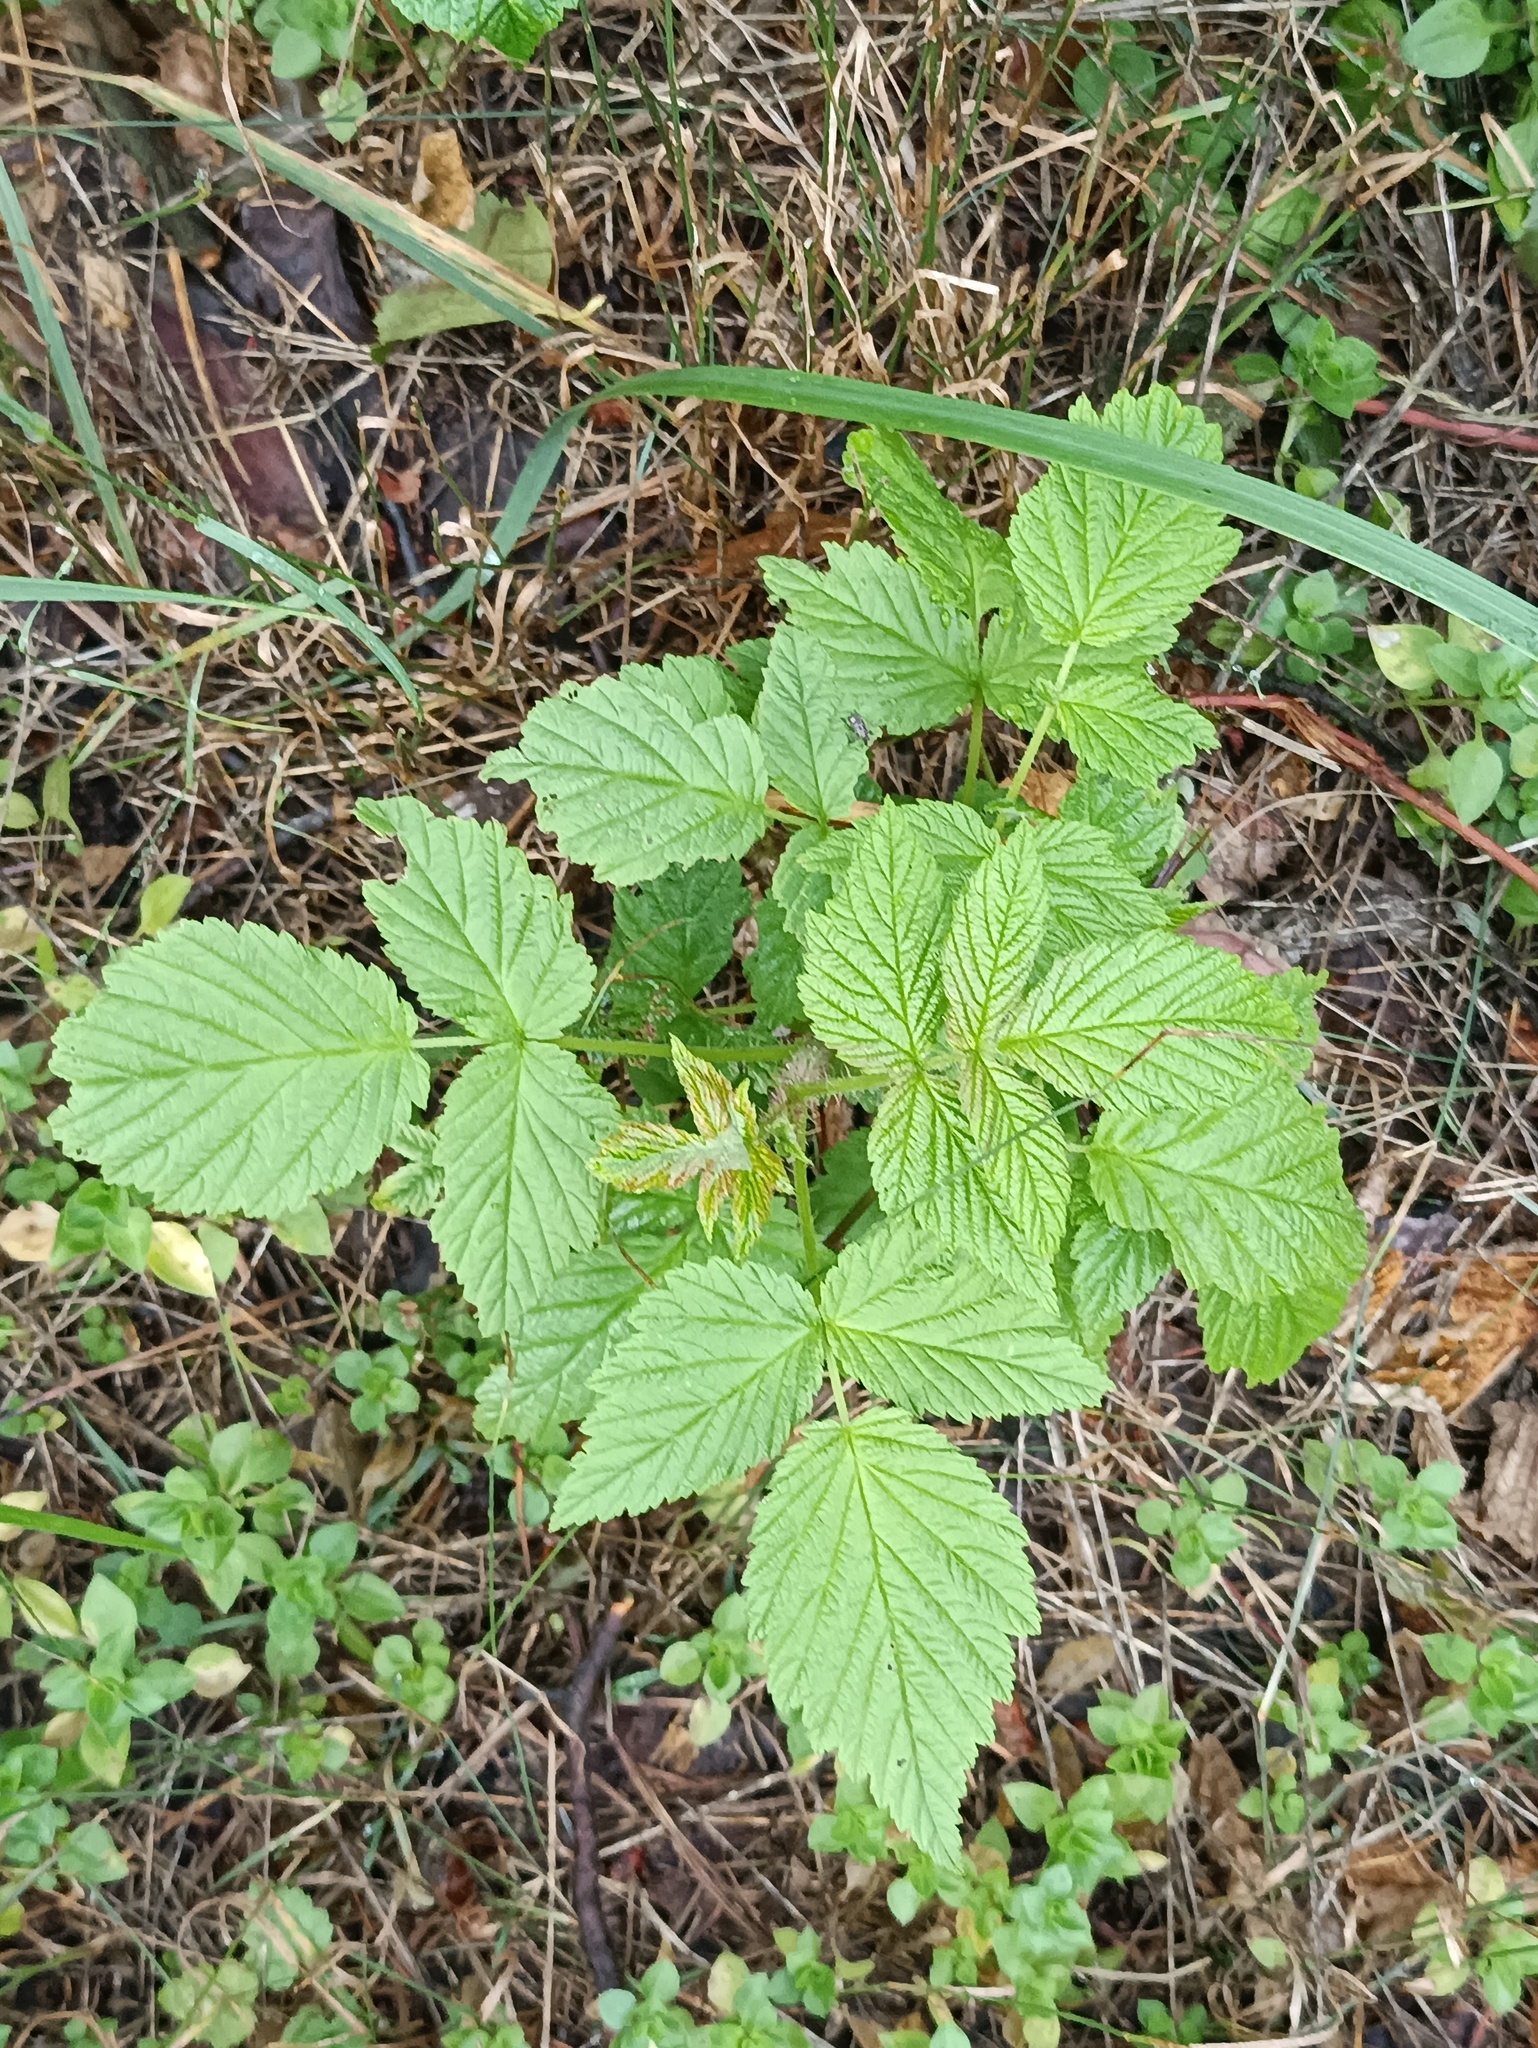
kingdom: Plantae
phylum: Tracheophyta
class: Magnoliopsida
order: Rosales
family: Rosaceae
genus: Rubus
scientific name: Rubus idaeus
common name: Raspberry
